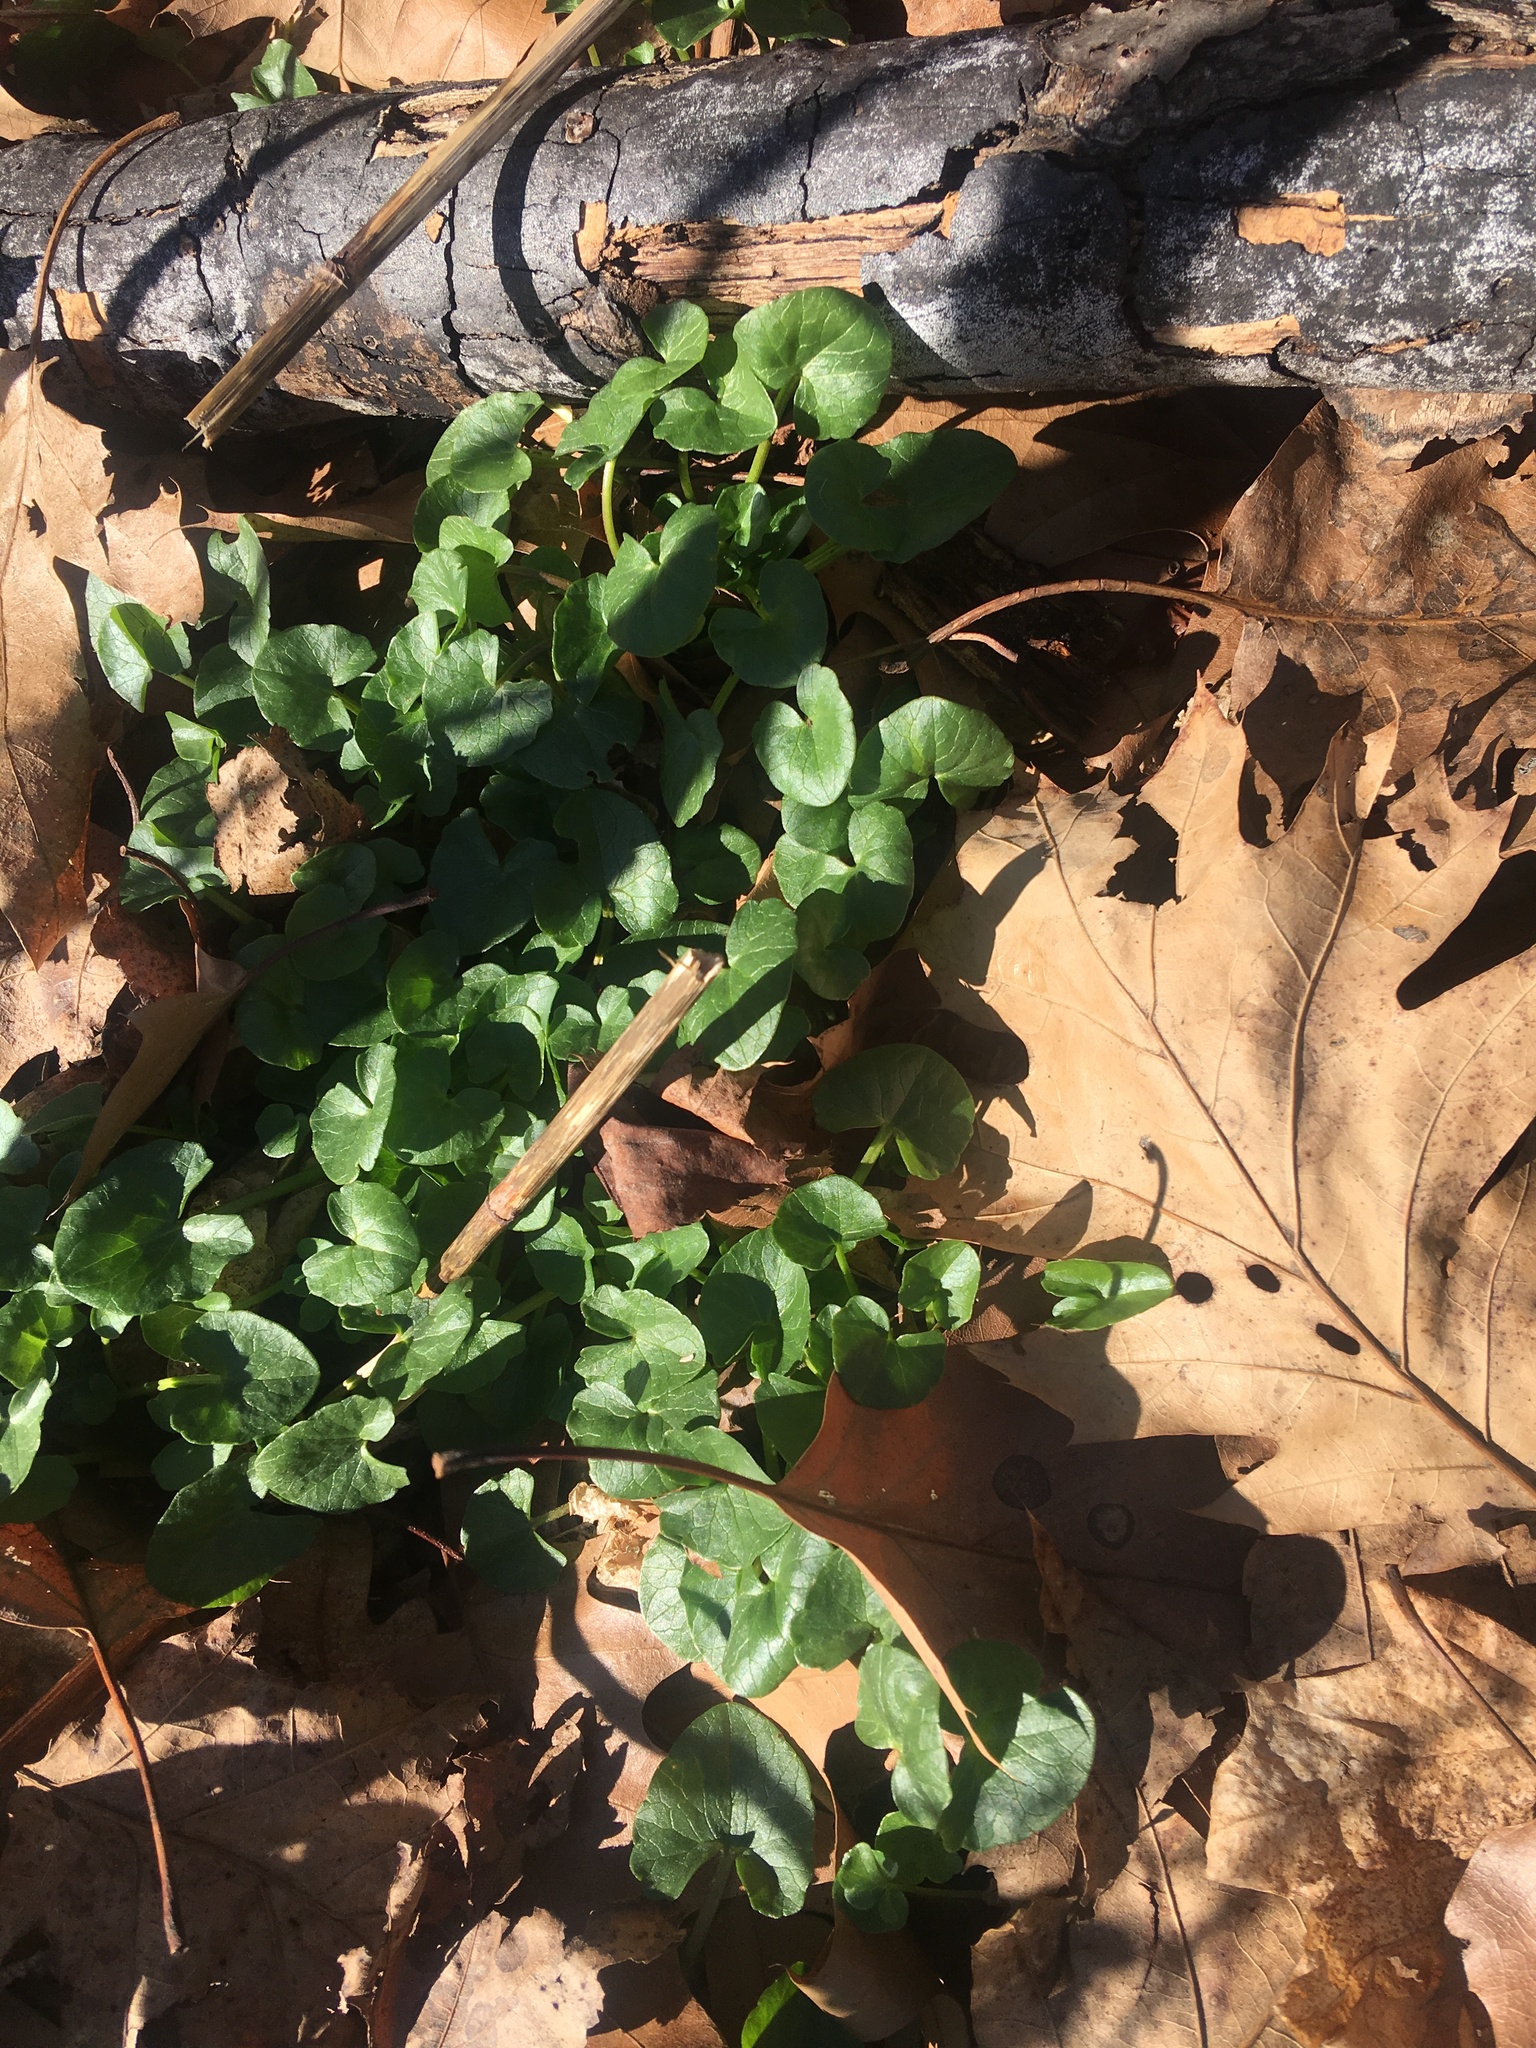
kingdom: Plantae
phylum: Tracheophyta
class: Magnoliopsida
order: Ranunculales
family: Ranunculaceae
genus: Ficaria
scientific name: Ficaria verna
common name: Lesser celandine
